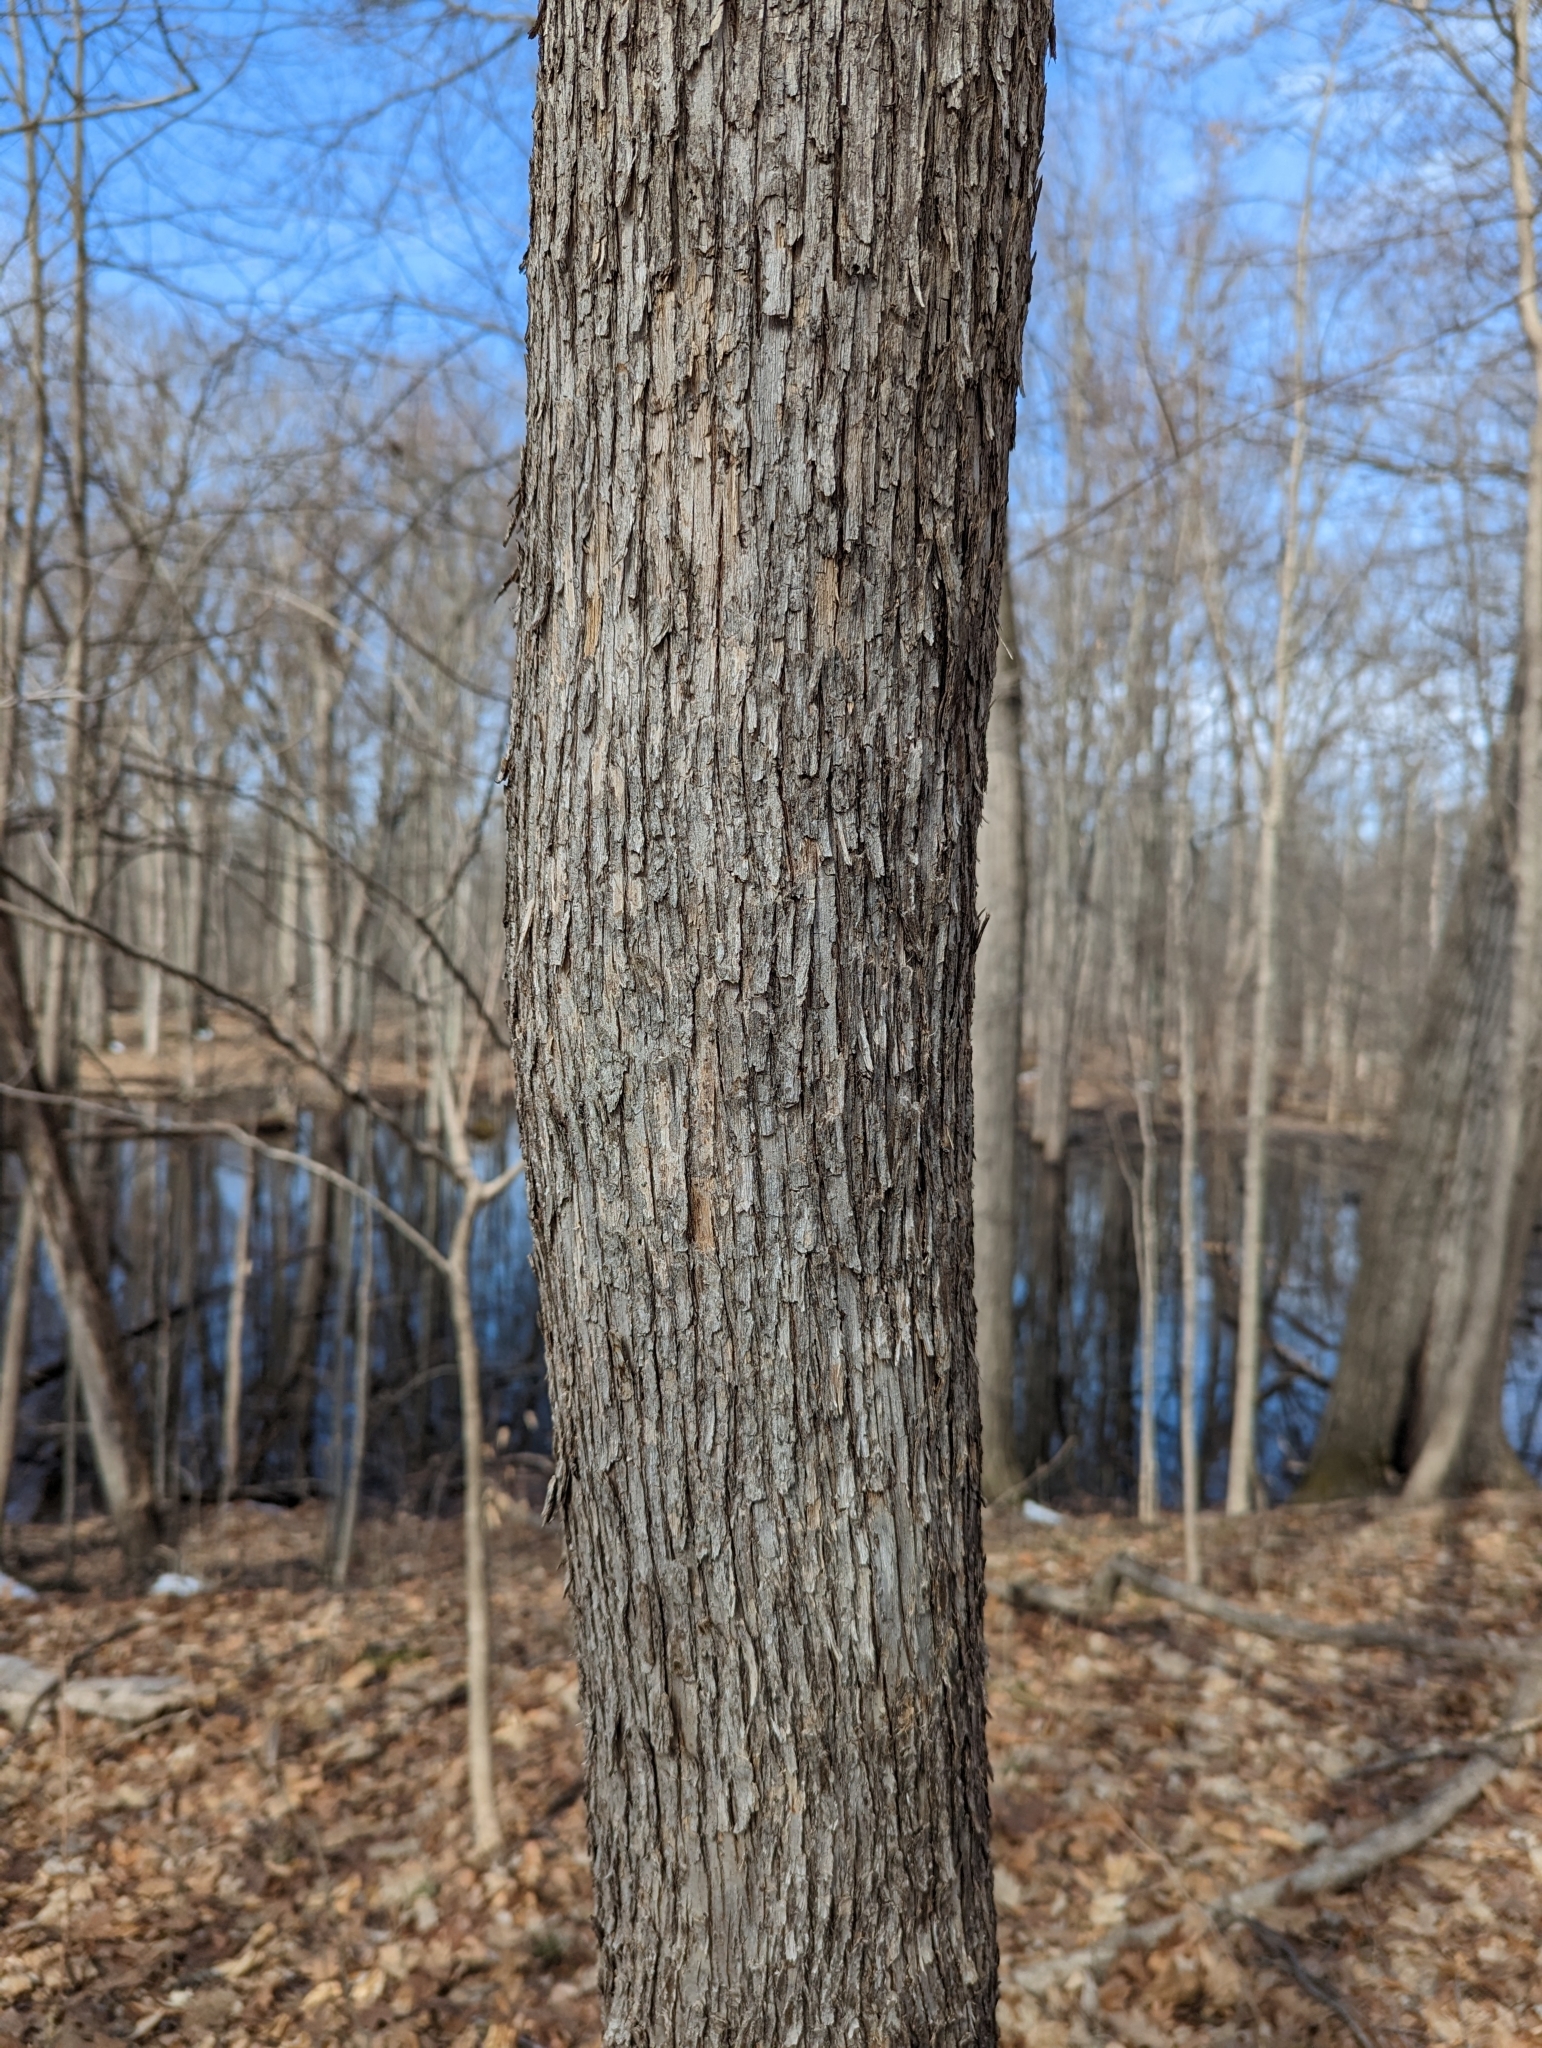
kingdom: Plantae
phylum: Tracheophyta
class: Magnoliopsida
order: Fagales
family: Betulaceae
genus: Ostrya
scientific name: Ostrya virginiana
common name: Ironwood
